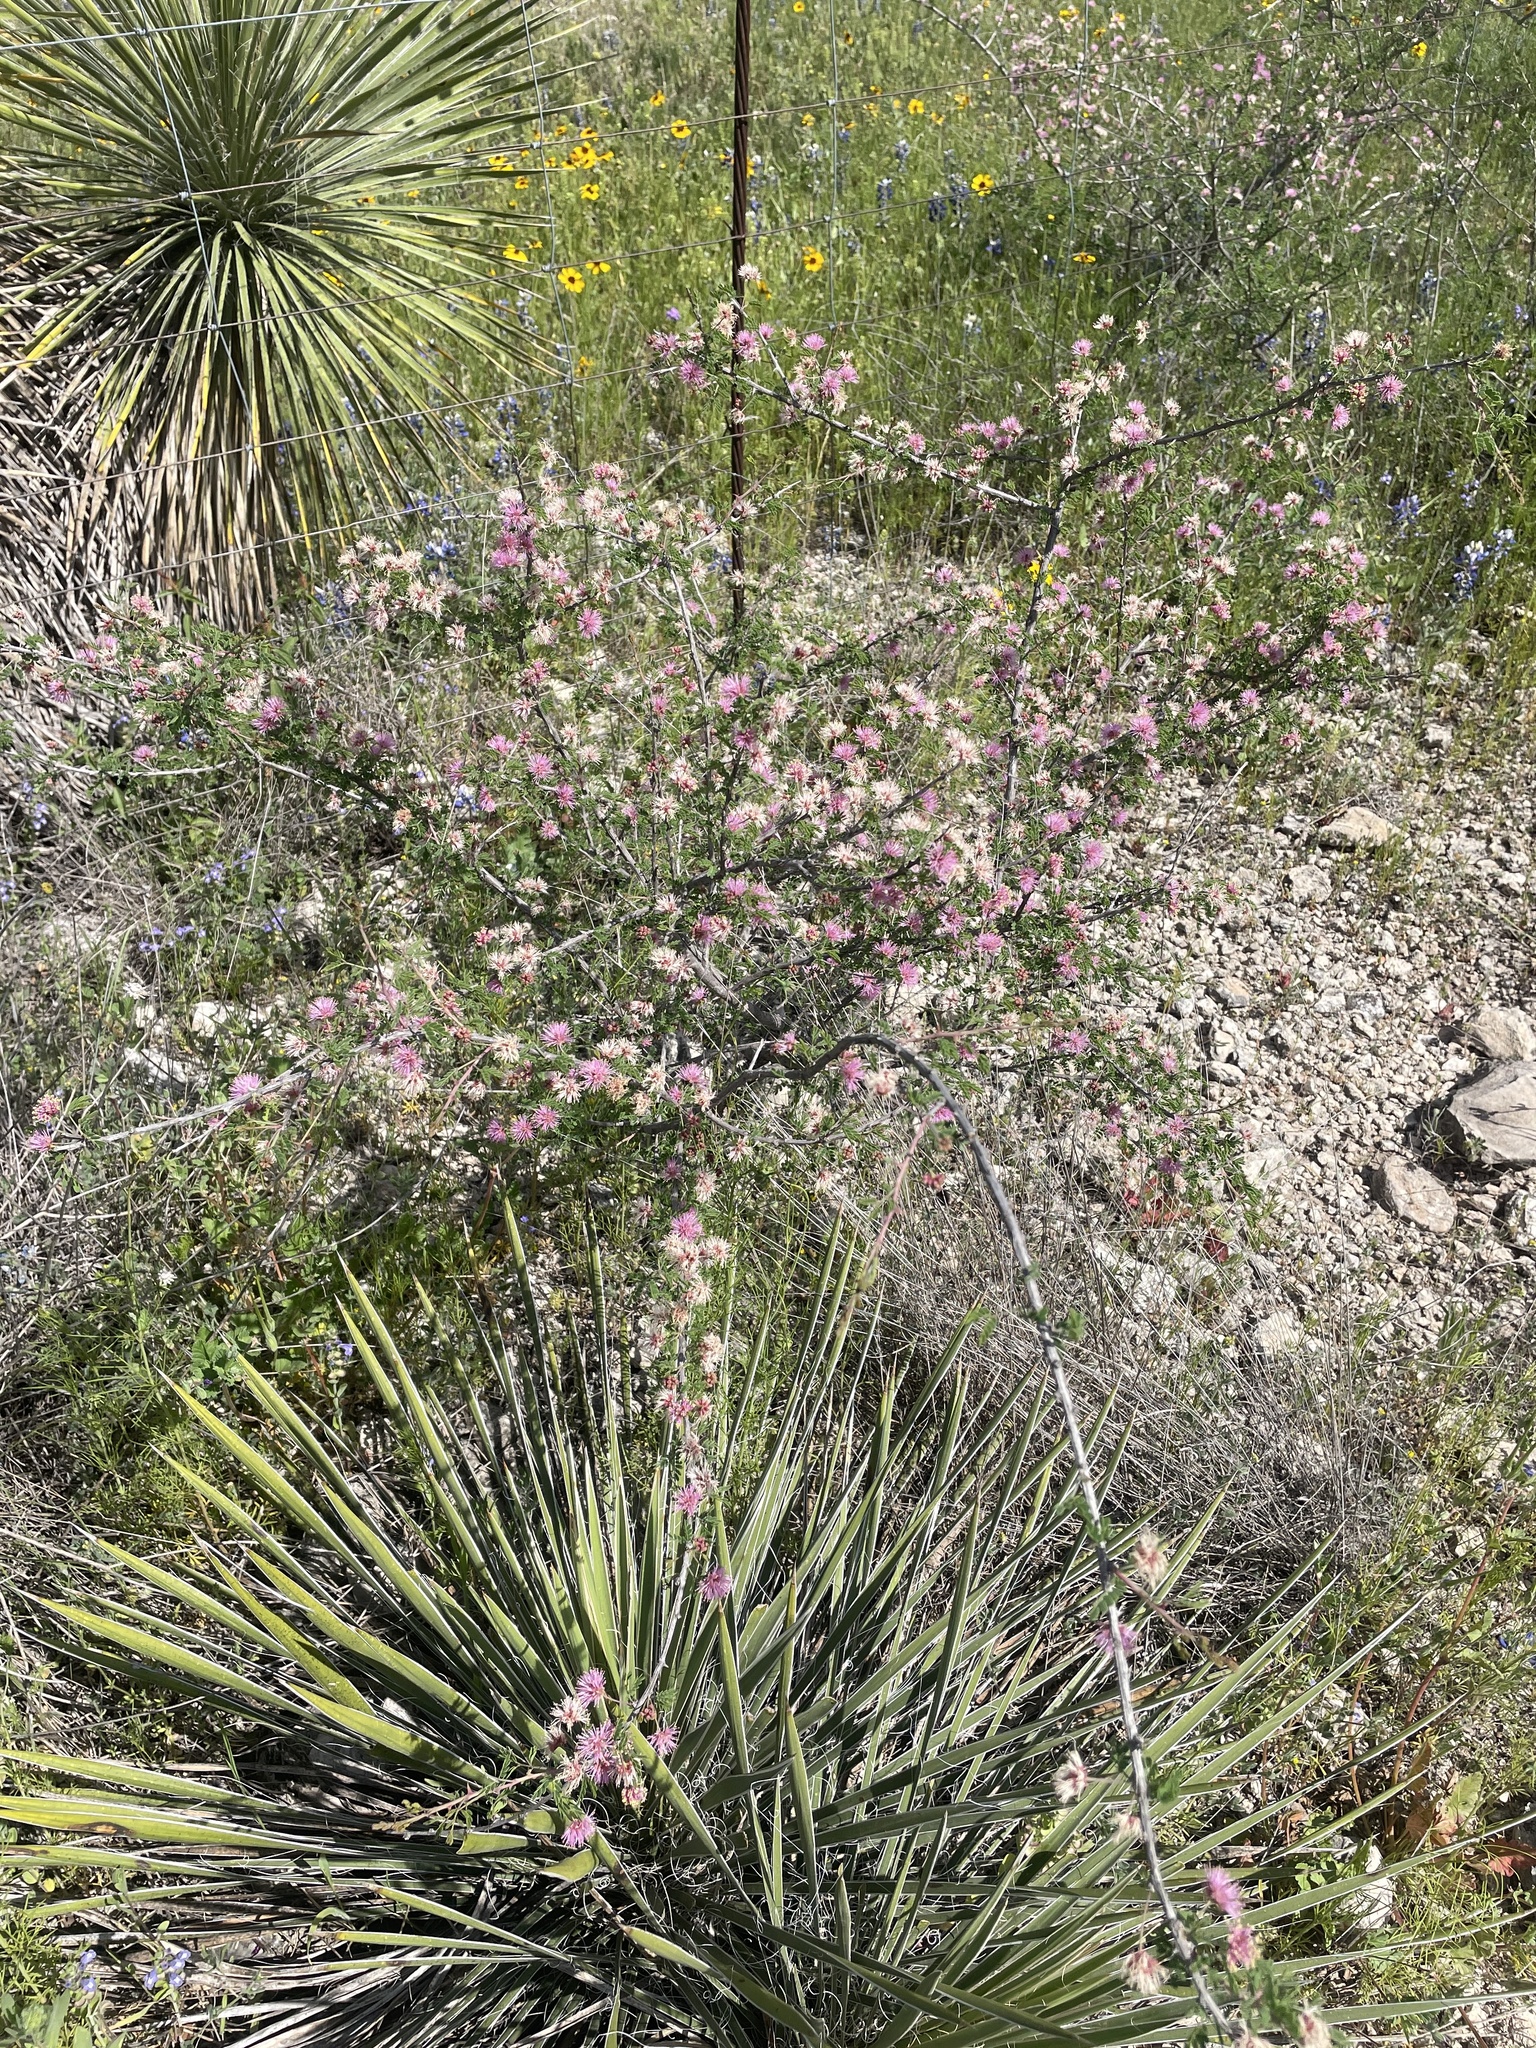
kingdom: Plantae
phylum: Tracheophyta
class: Magnoliopsida
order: Fabales
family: Fabaceae
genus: Mimosa
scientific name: Mimosa borealis
